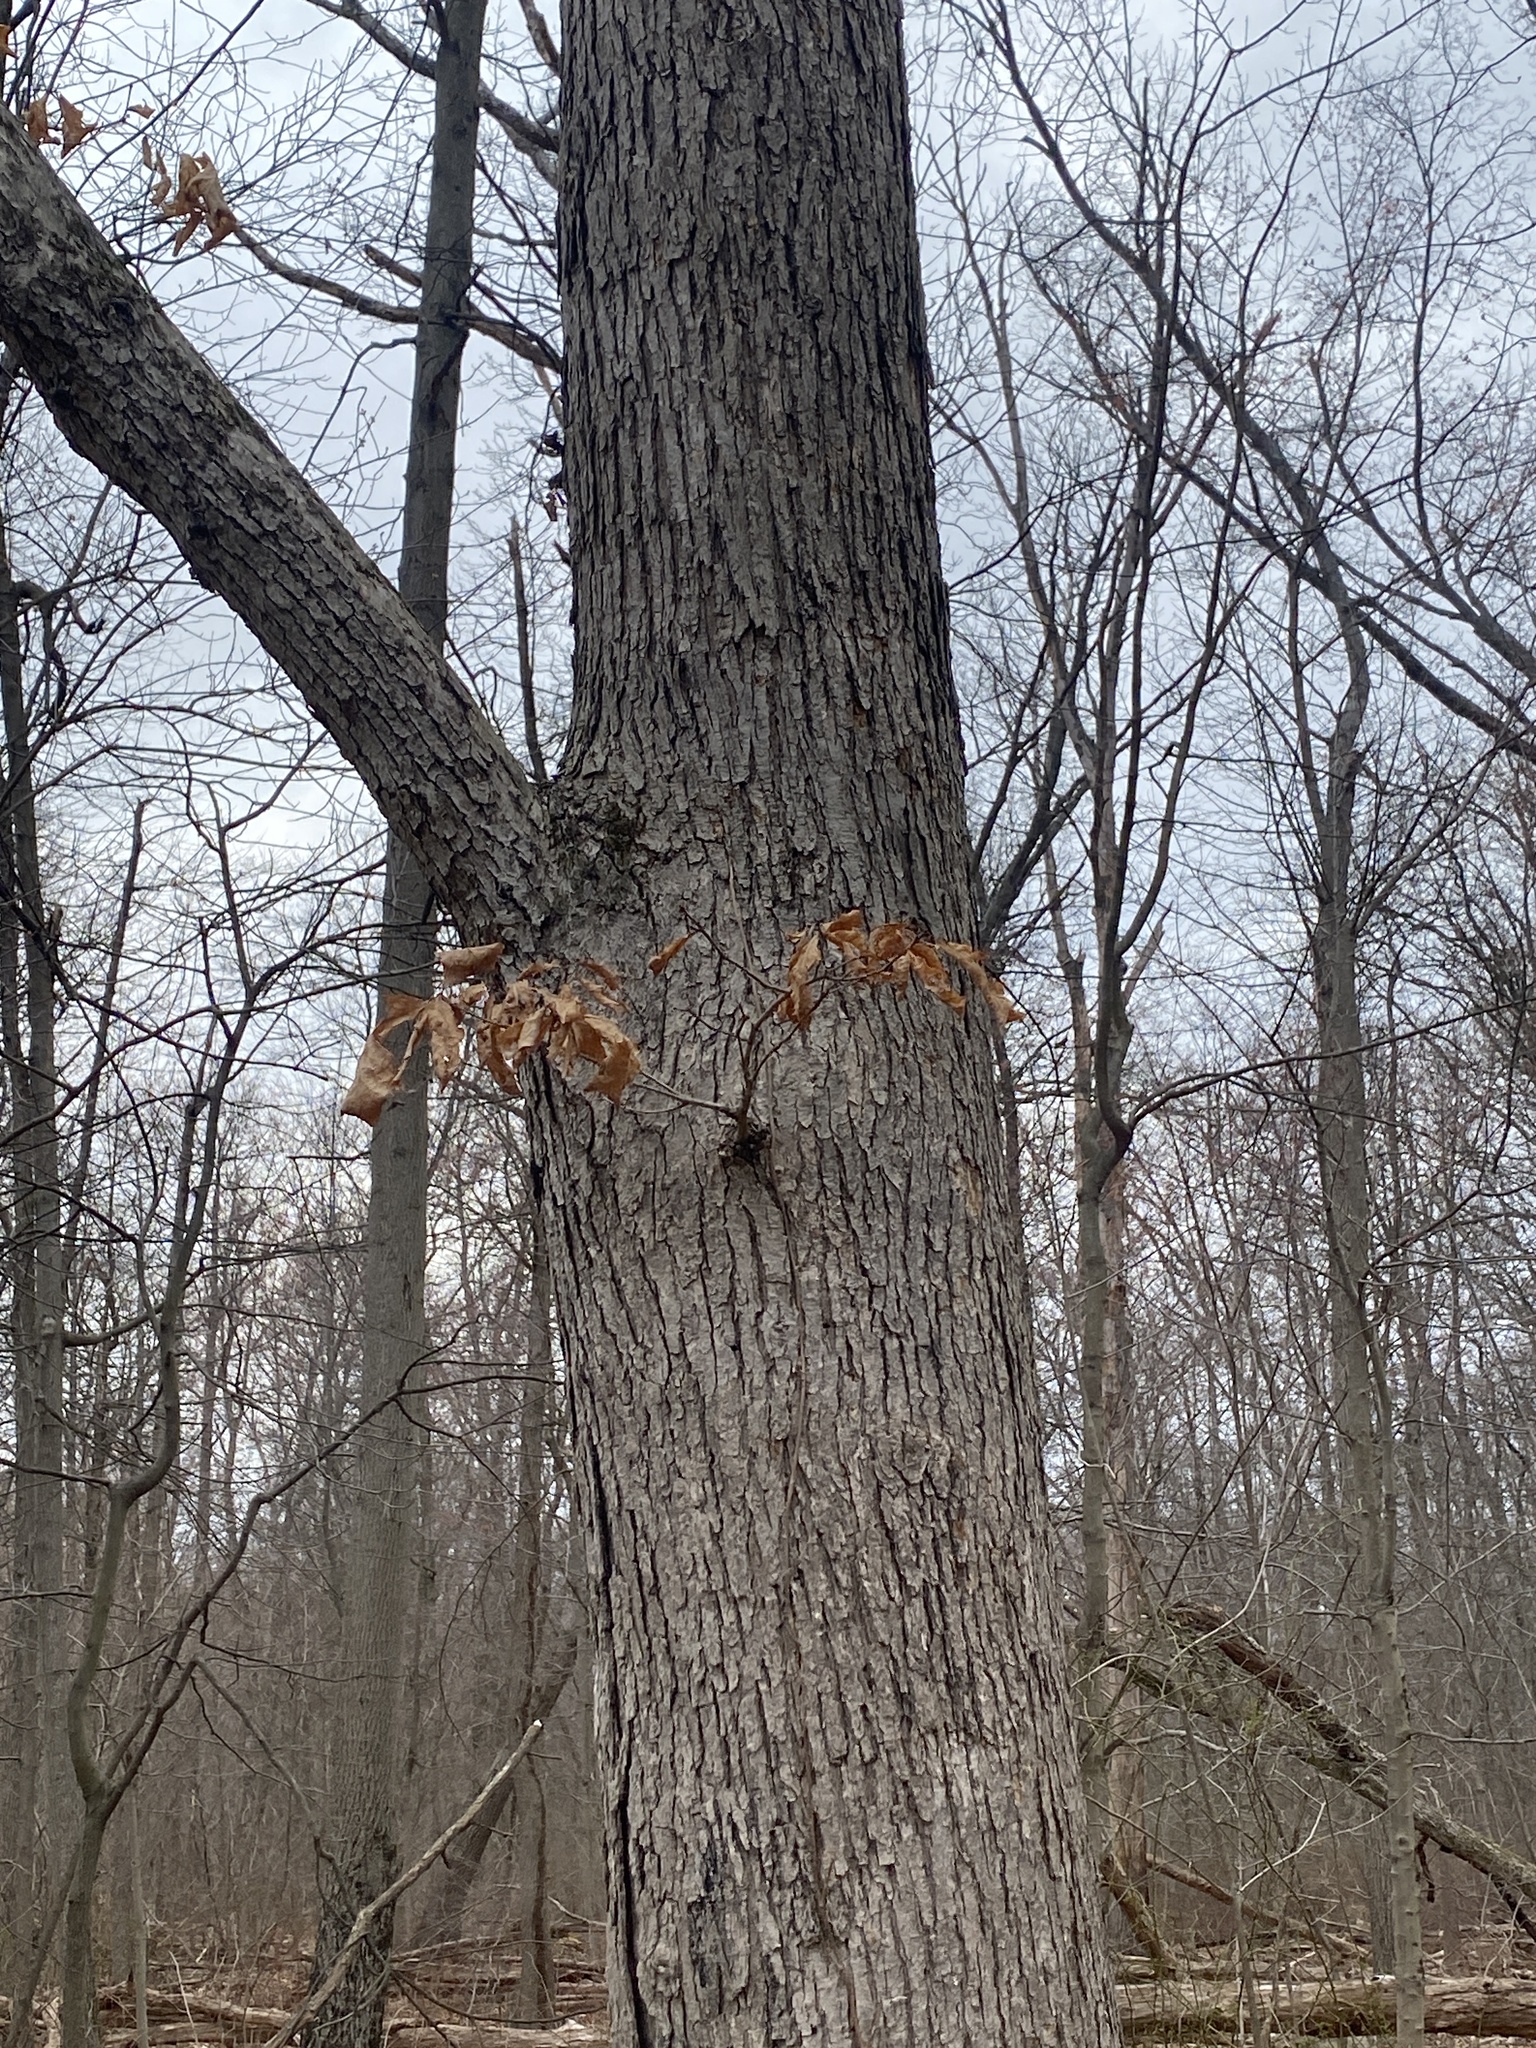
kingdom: Plantae
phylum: Tracheophyta
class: Magnoliopsida
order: Fagales
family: Fagaceae
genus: Quercus
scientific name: Quercus alba
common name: White oak
